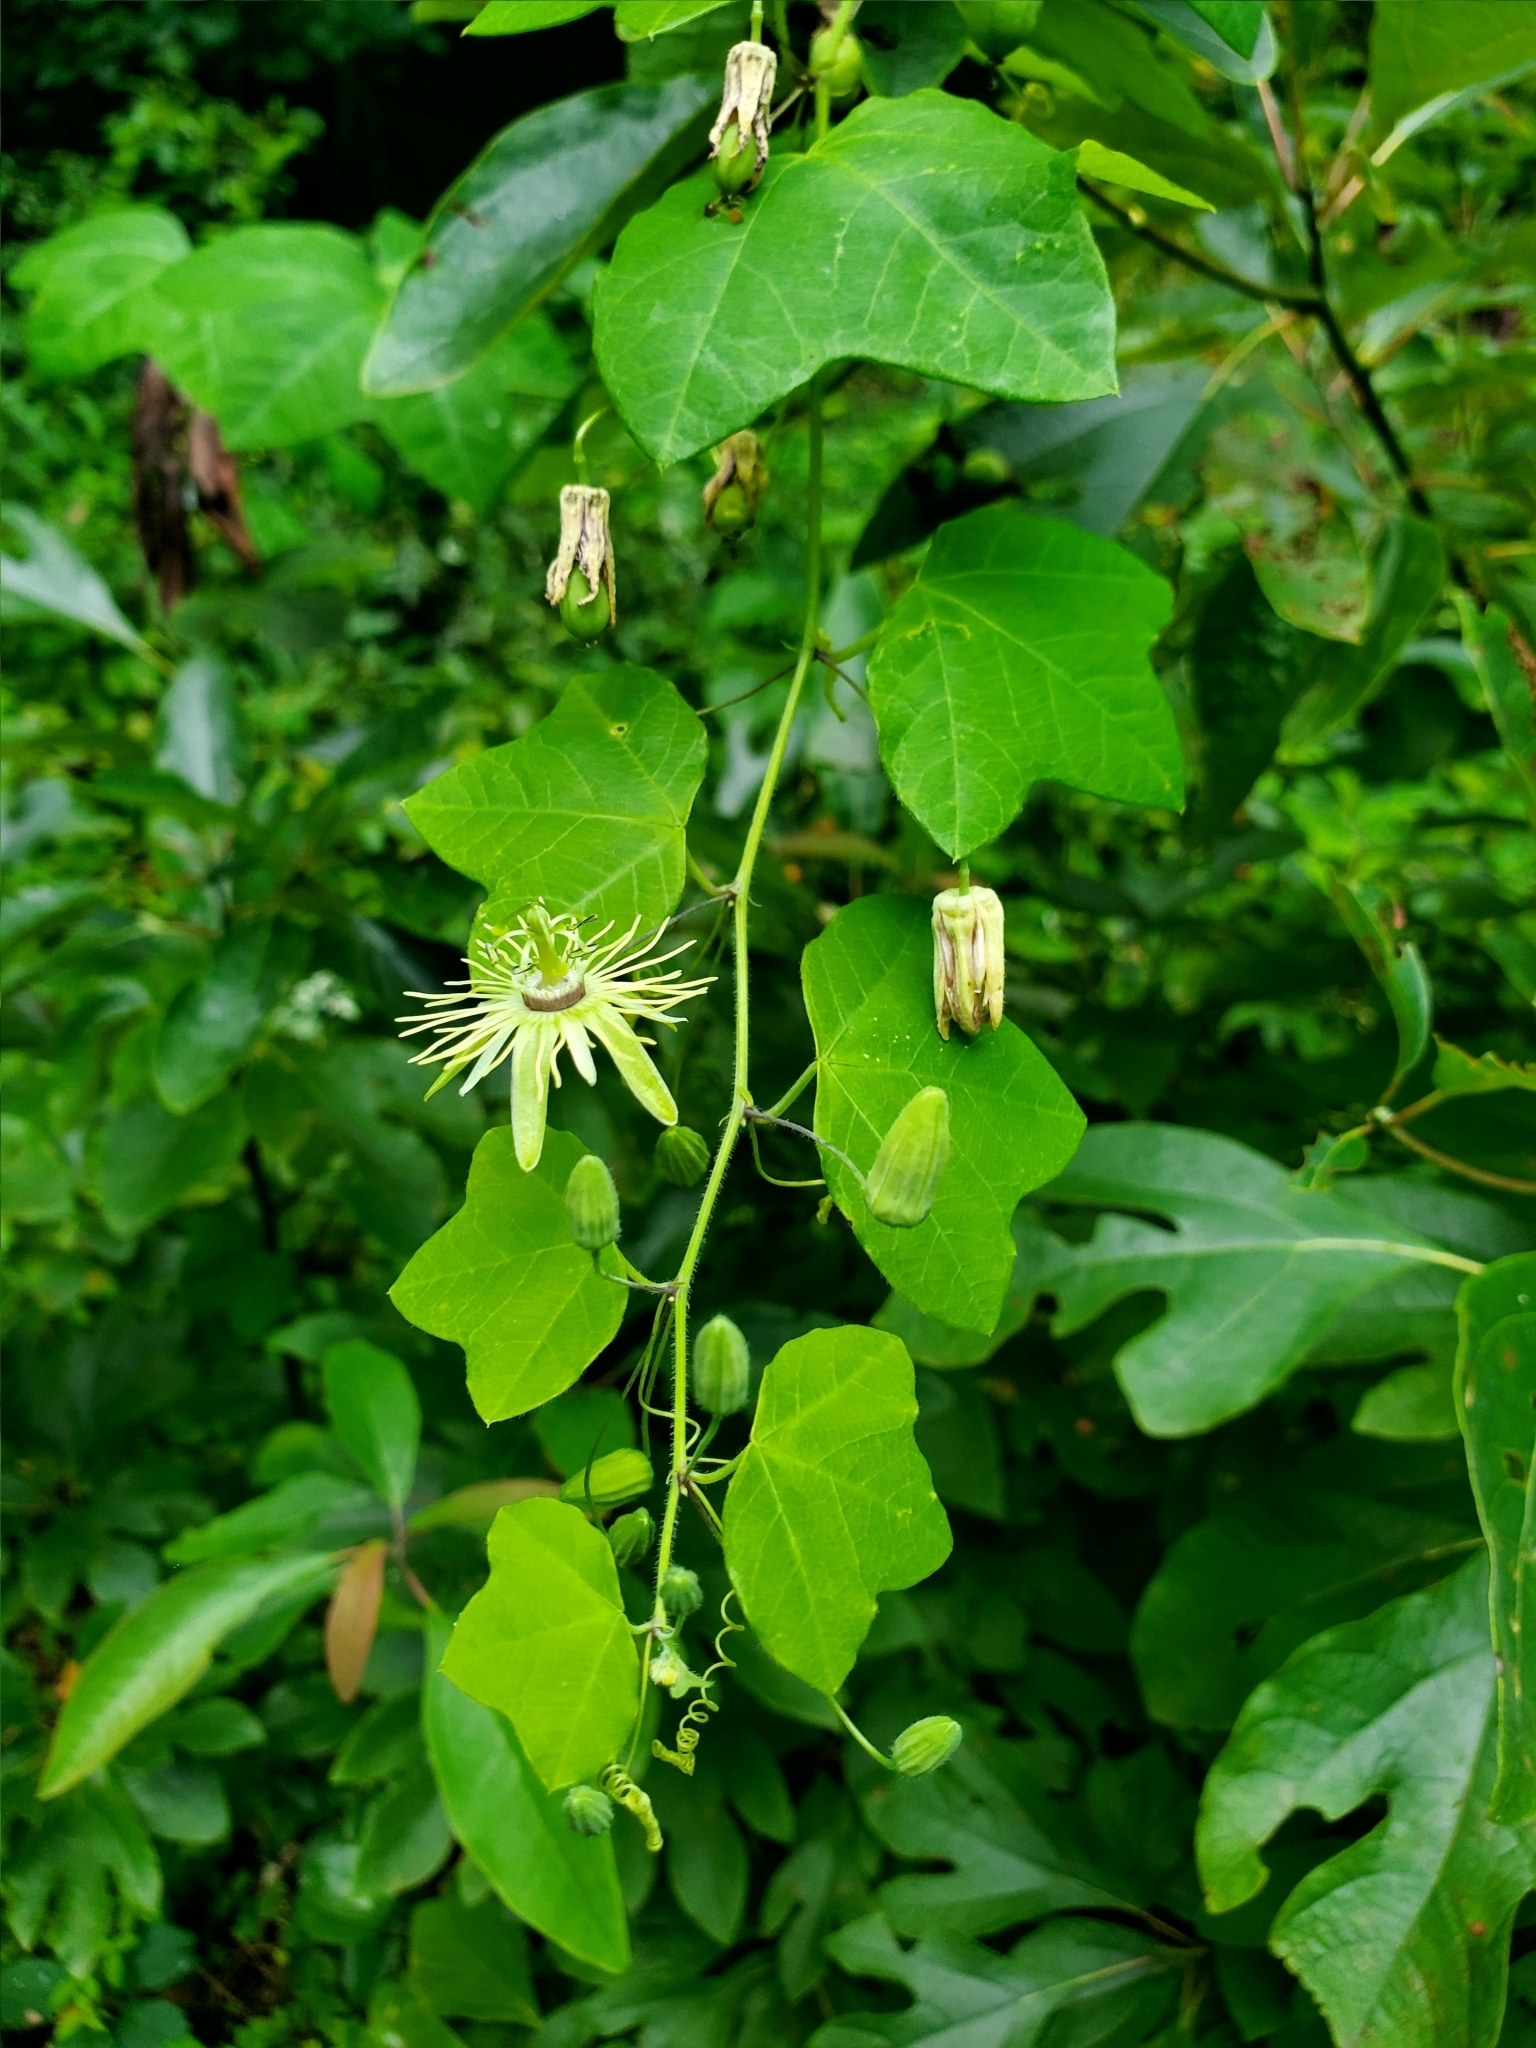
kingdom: Plantae
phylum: Tracheophyta
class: Magnoliopsida
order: Malpighiales
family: Passifloraceae
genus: Passiflora
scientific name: Passiflora lutea
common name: Yellow passionflower
